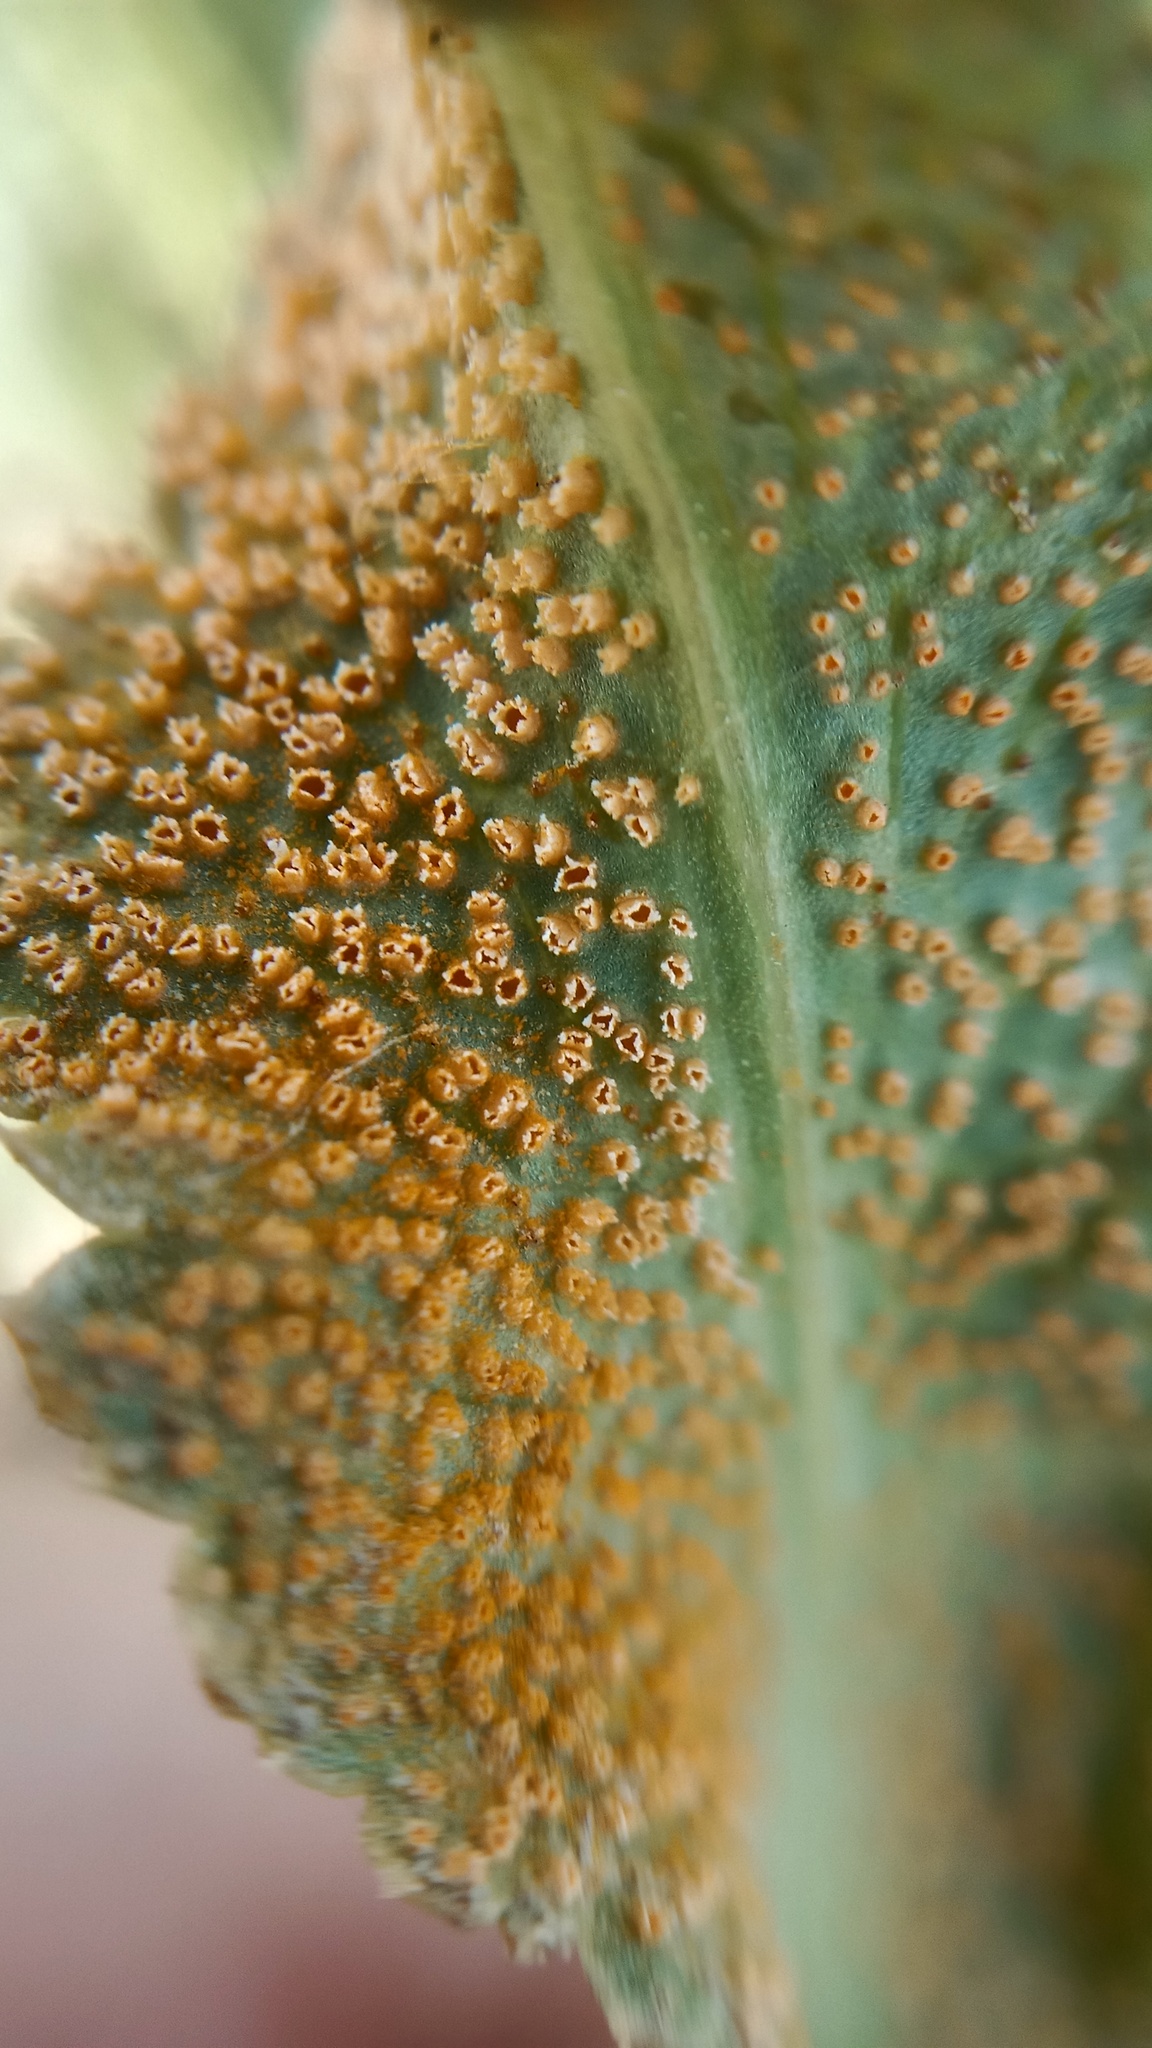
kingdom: Fungi
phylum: Basidiomycota
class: Pucciniomycetes
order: Pucciniales
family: Pucciniaceae
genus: Puccinia
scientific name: Puccinia sii-falcariae
